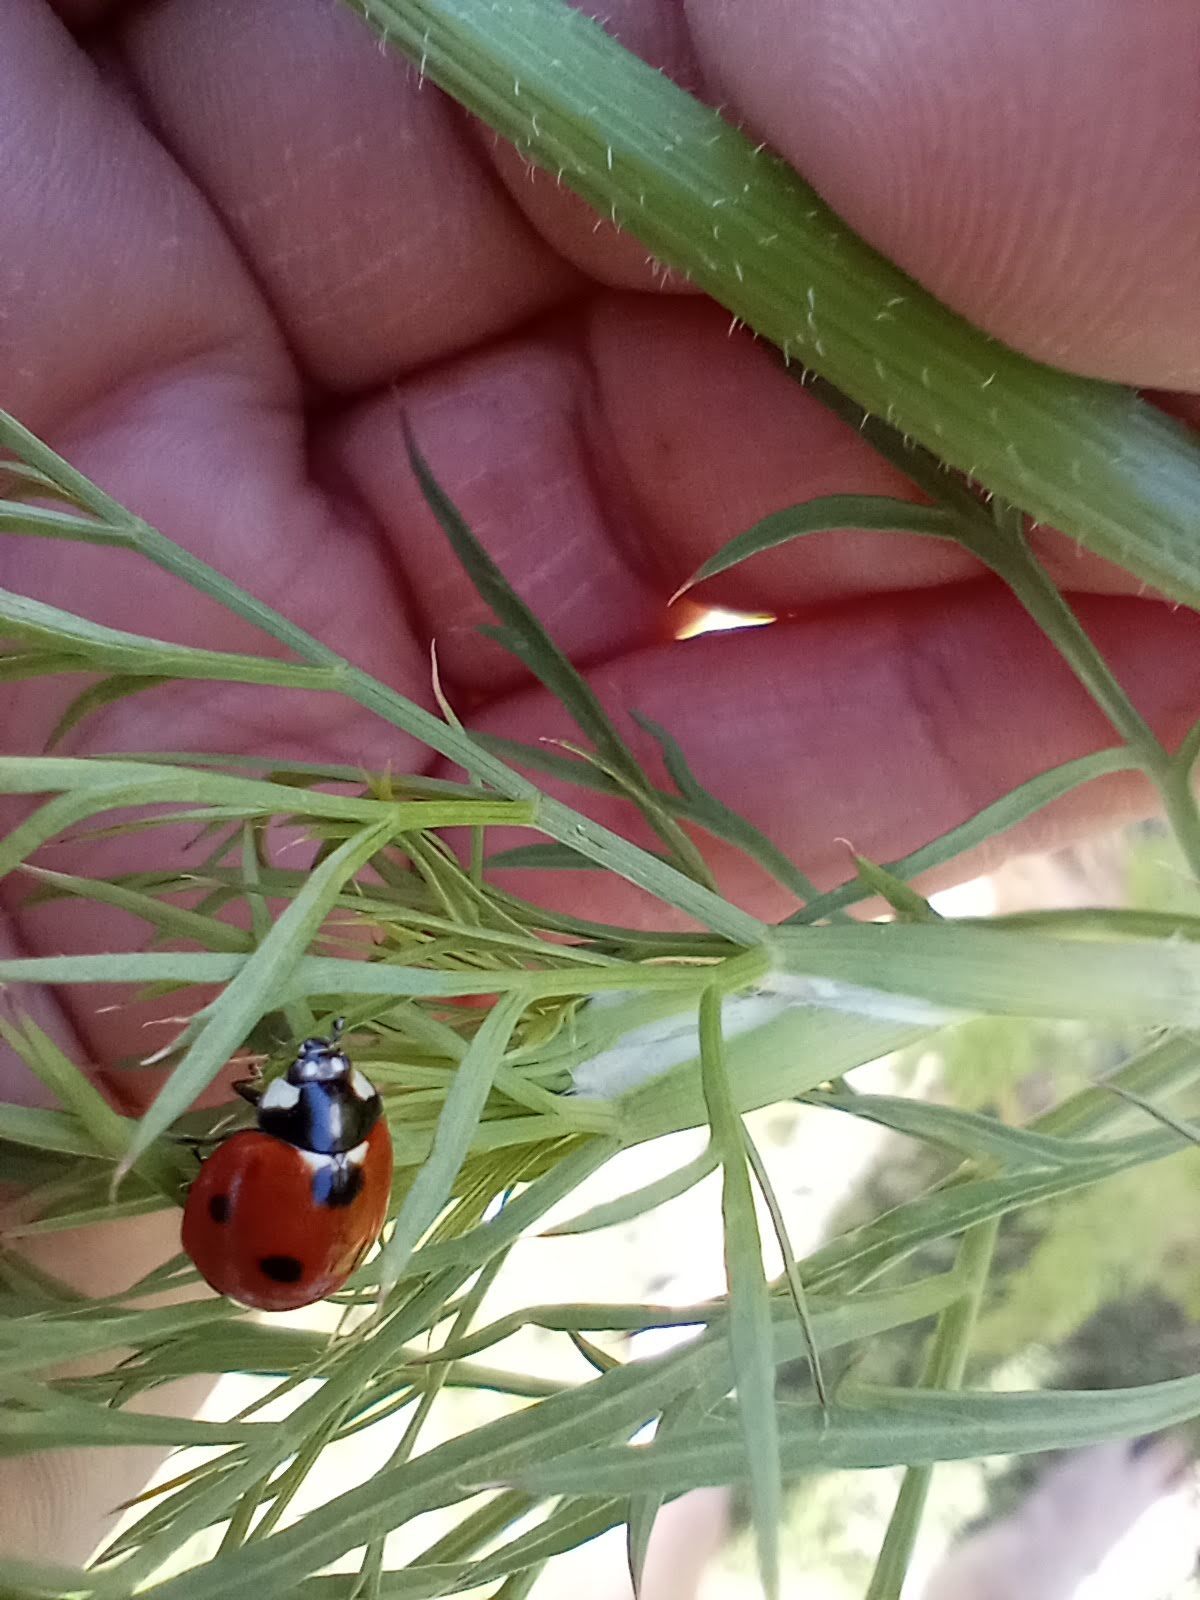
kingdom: Animalia
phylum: Arthropoda
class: Insecta
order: Coleoptera
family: Coccinellidae
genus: Coccinella
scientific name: Coccinella septempunctata
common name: Sevenspotted lady beetle
